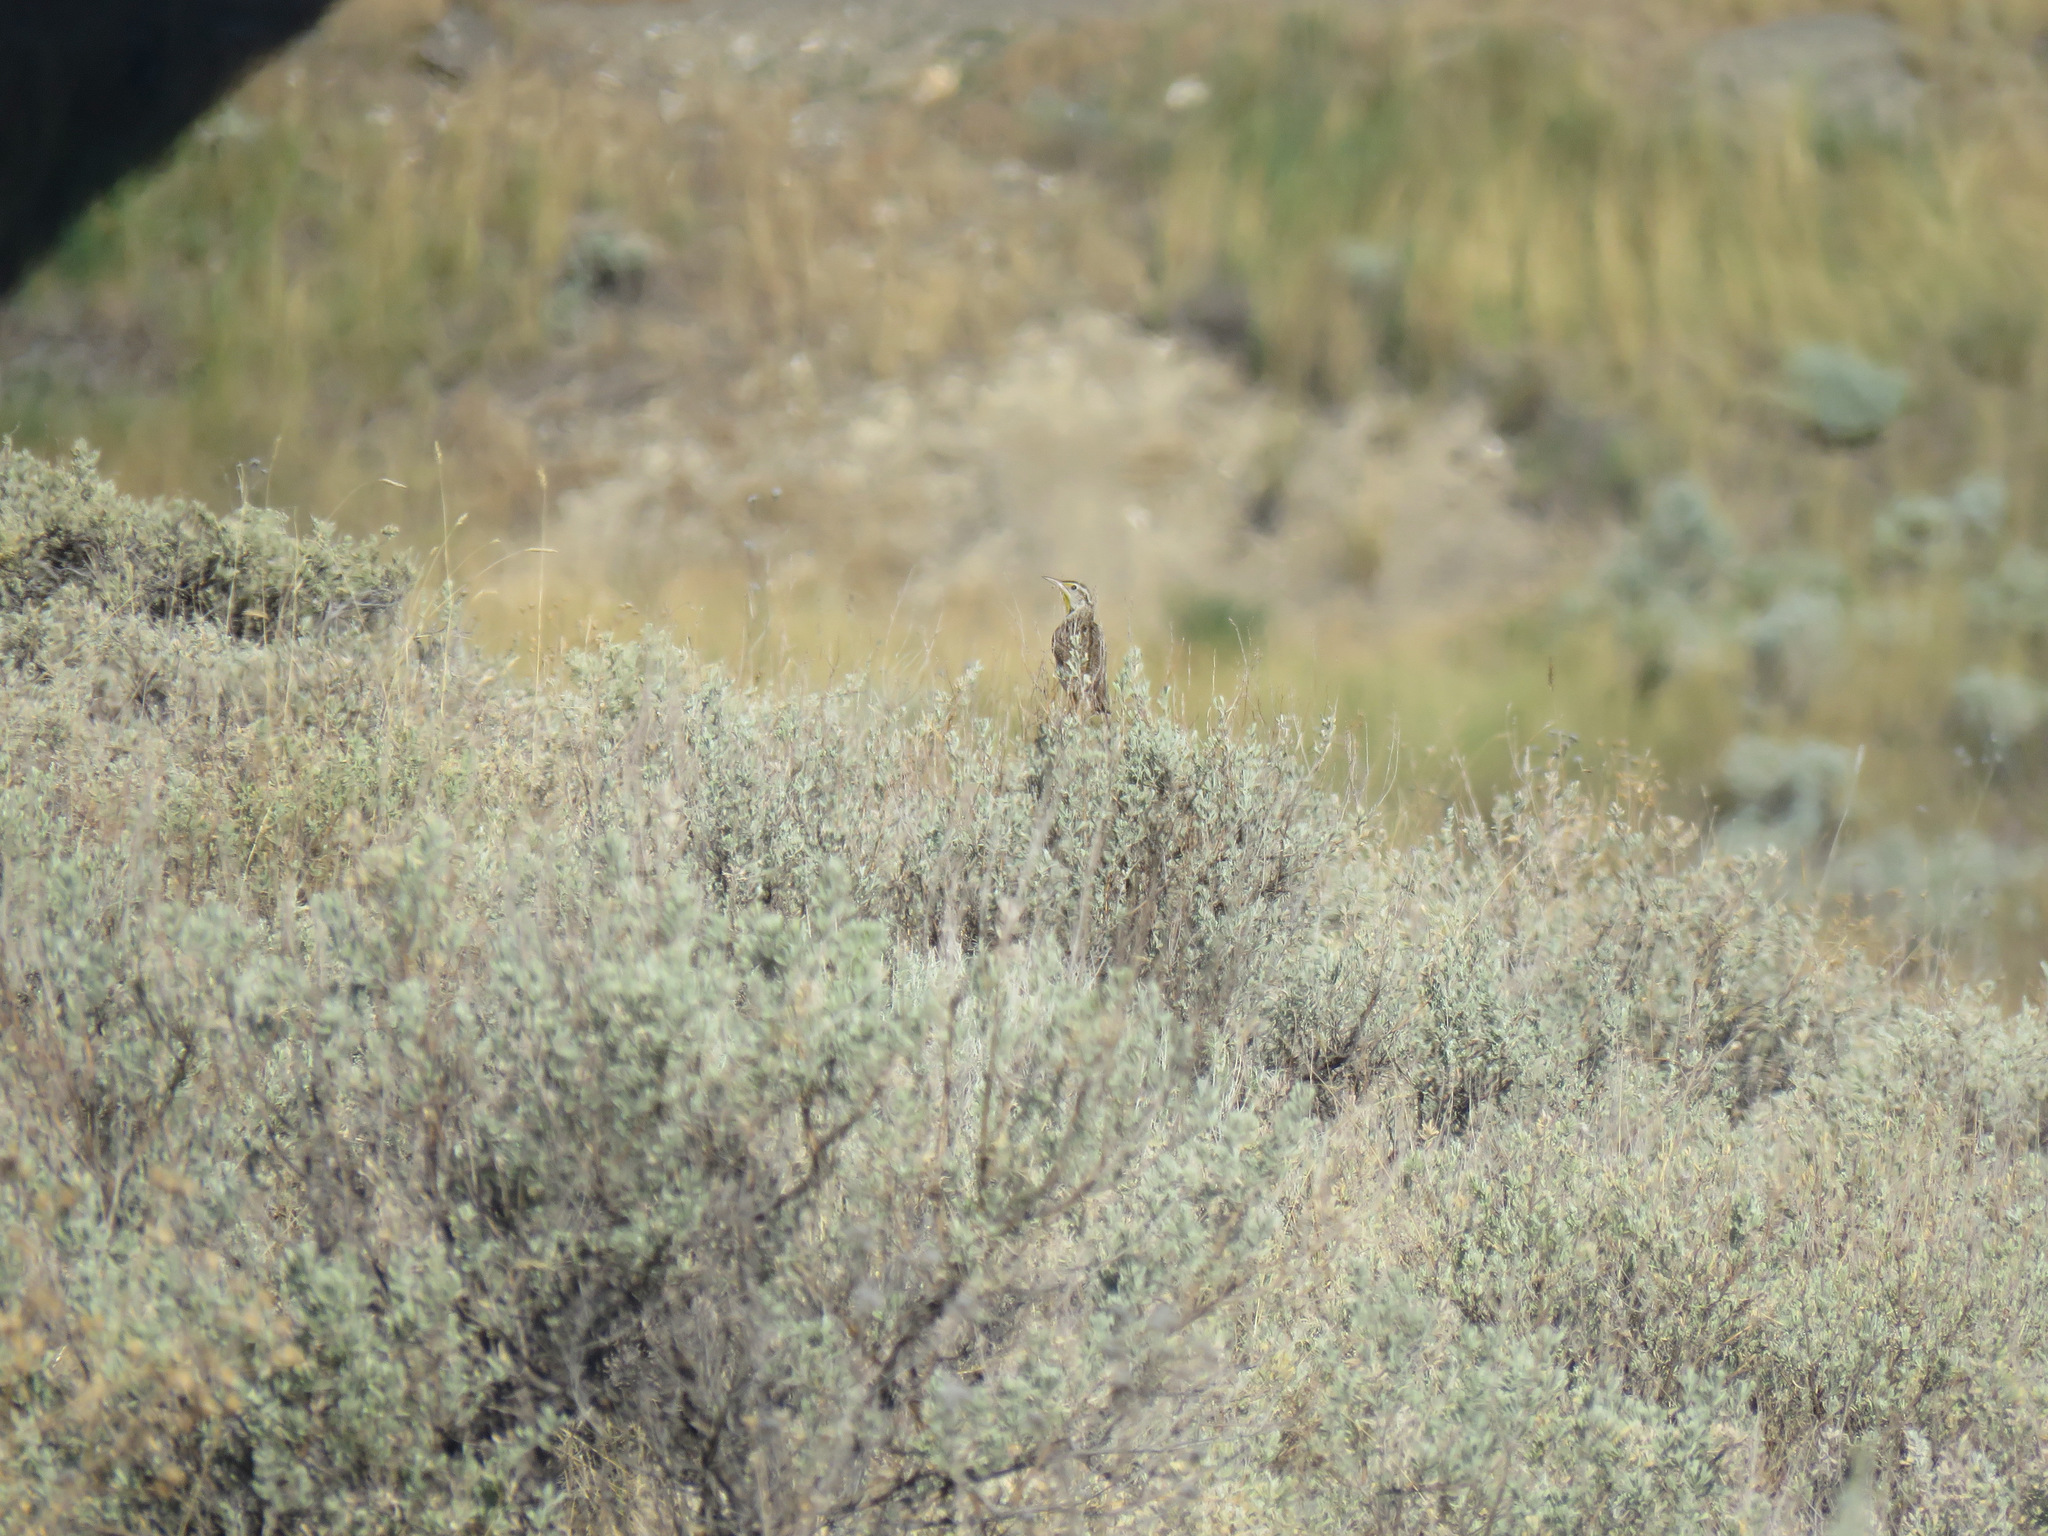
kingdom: Animalia
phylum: Chordata
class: Aves
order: Passeriformes
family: Icteridae
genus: Sturnella
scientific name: Sturnella neglecta
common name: Western meadowlark
